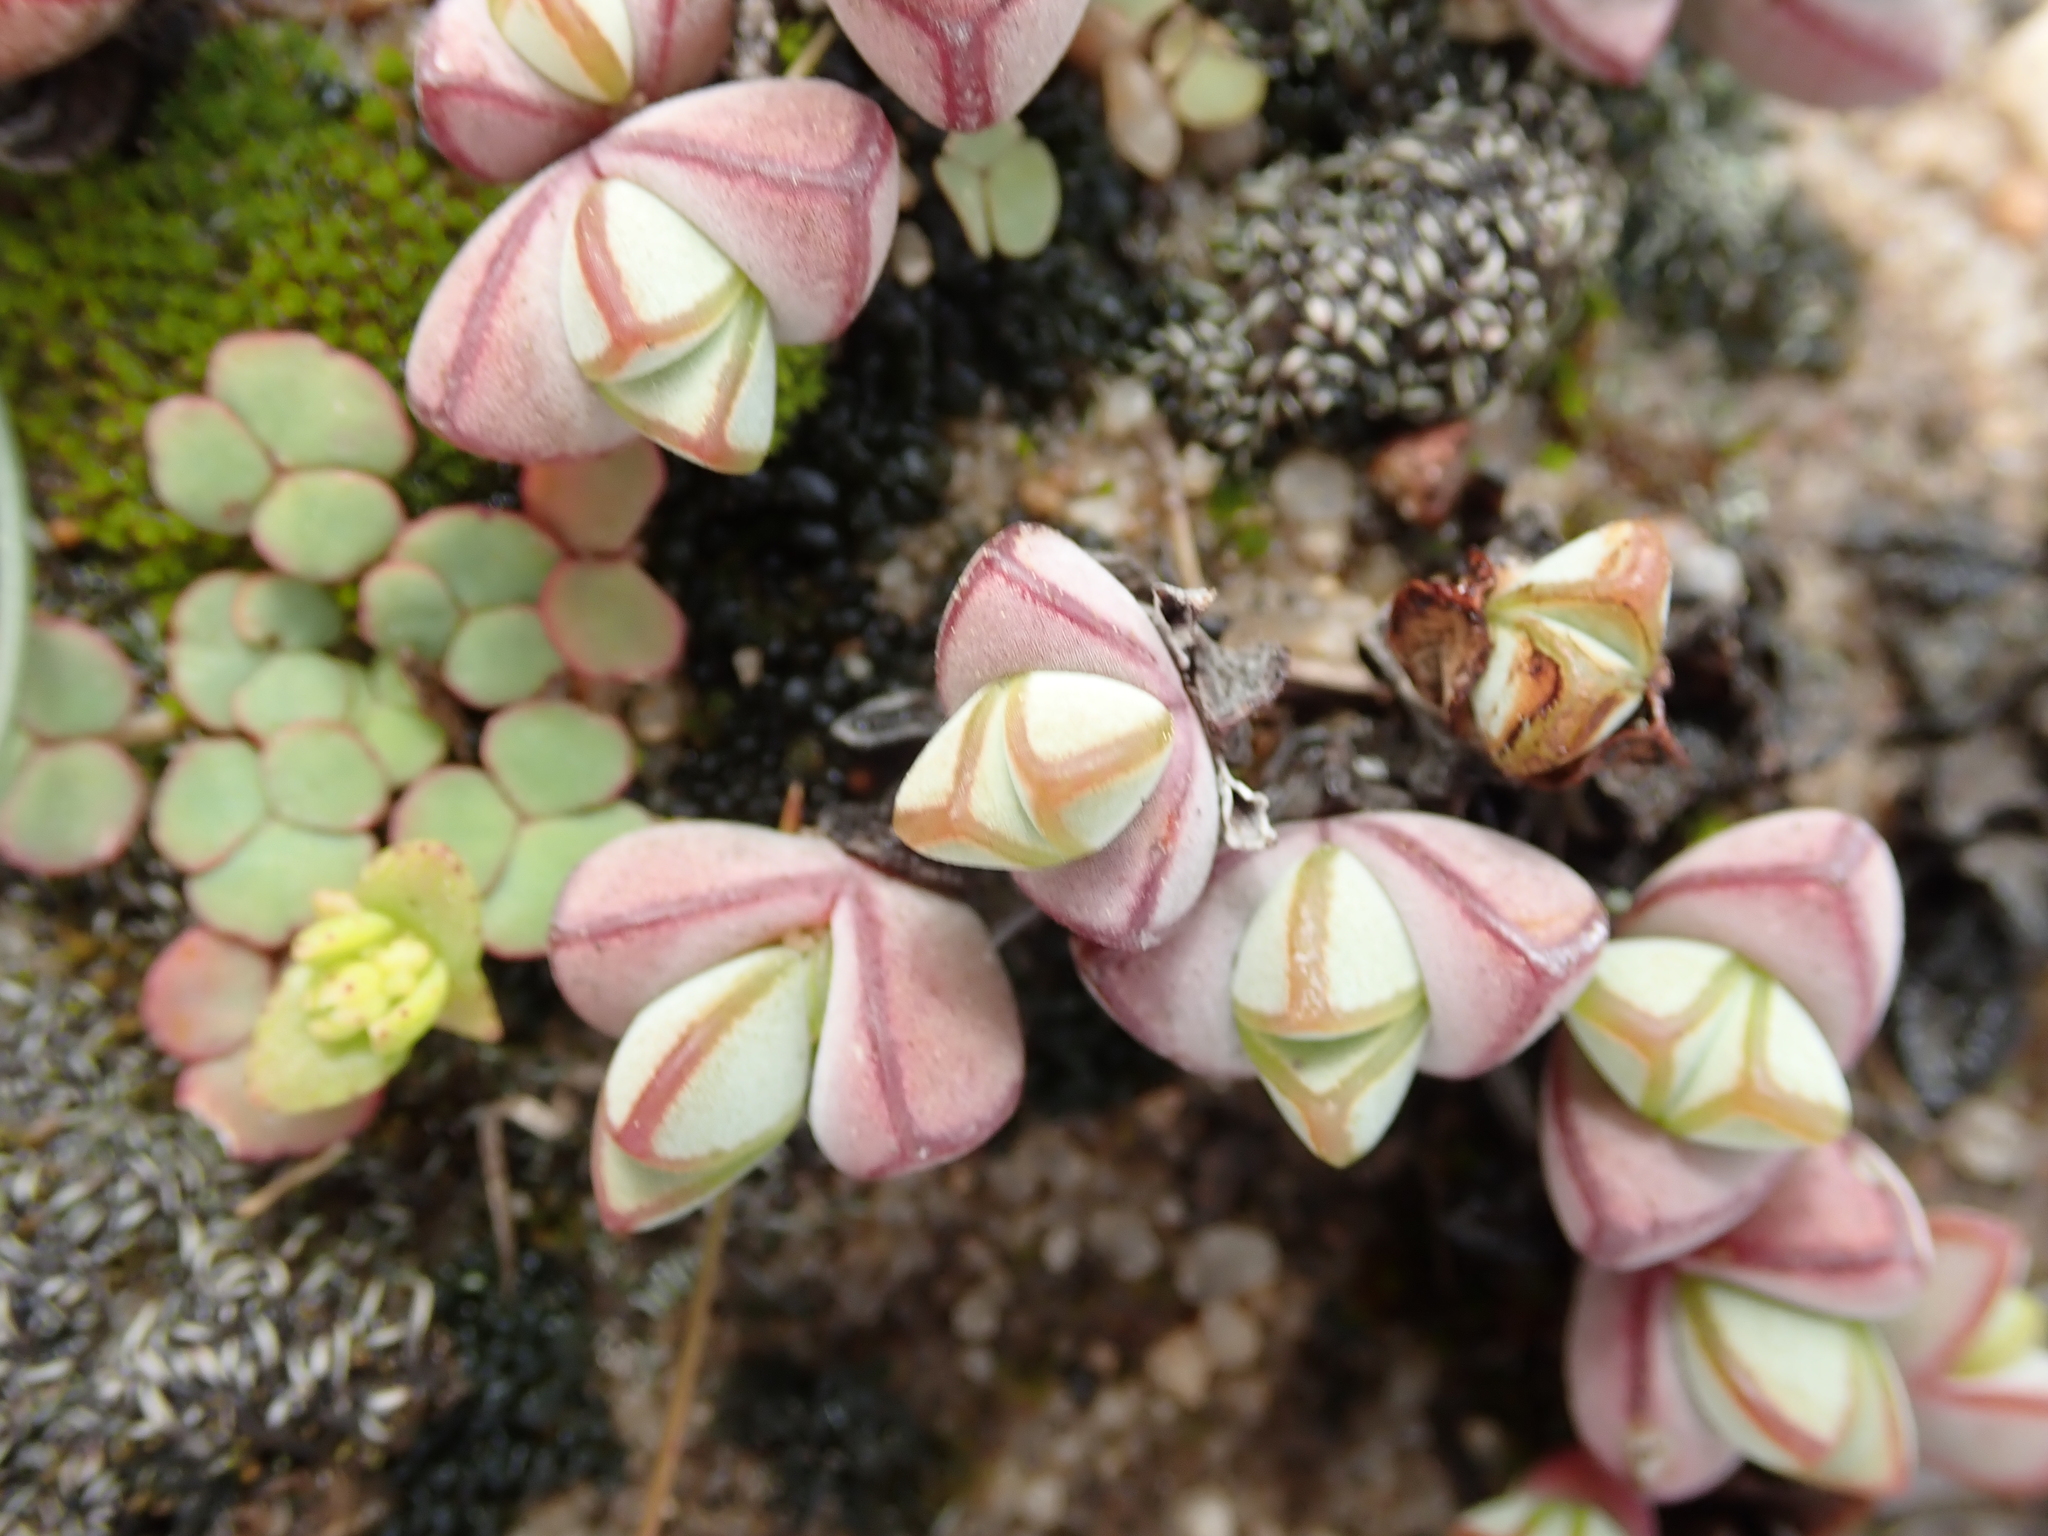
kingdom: Plantae
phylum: Tracheophyta
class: Magnoliopsida
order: Caryophyllales
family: Aizoaceae
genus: Braunsia
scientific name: Braunsia maximiliani
